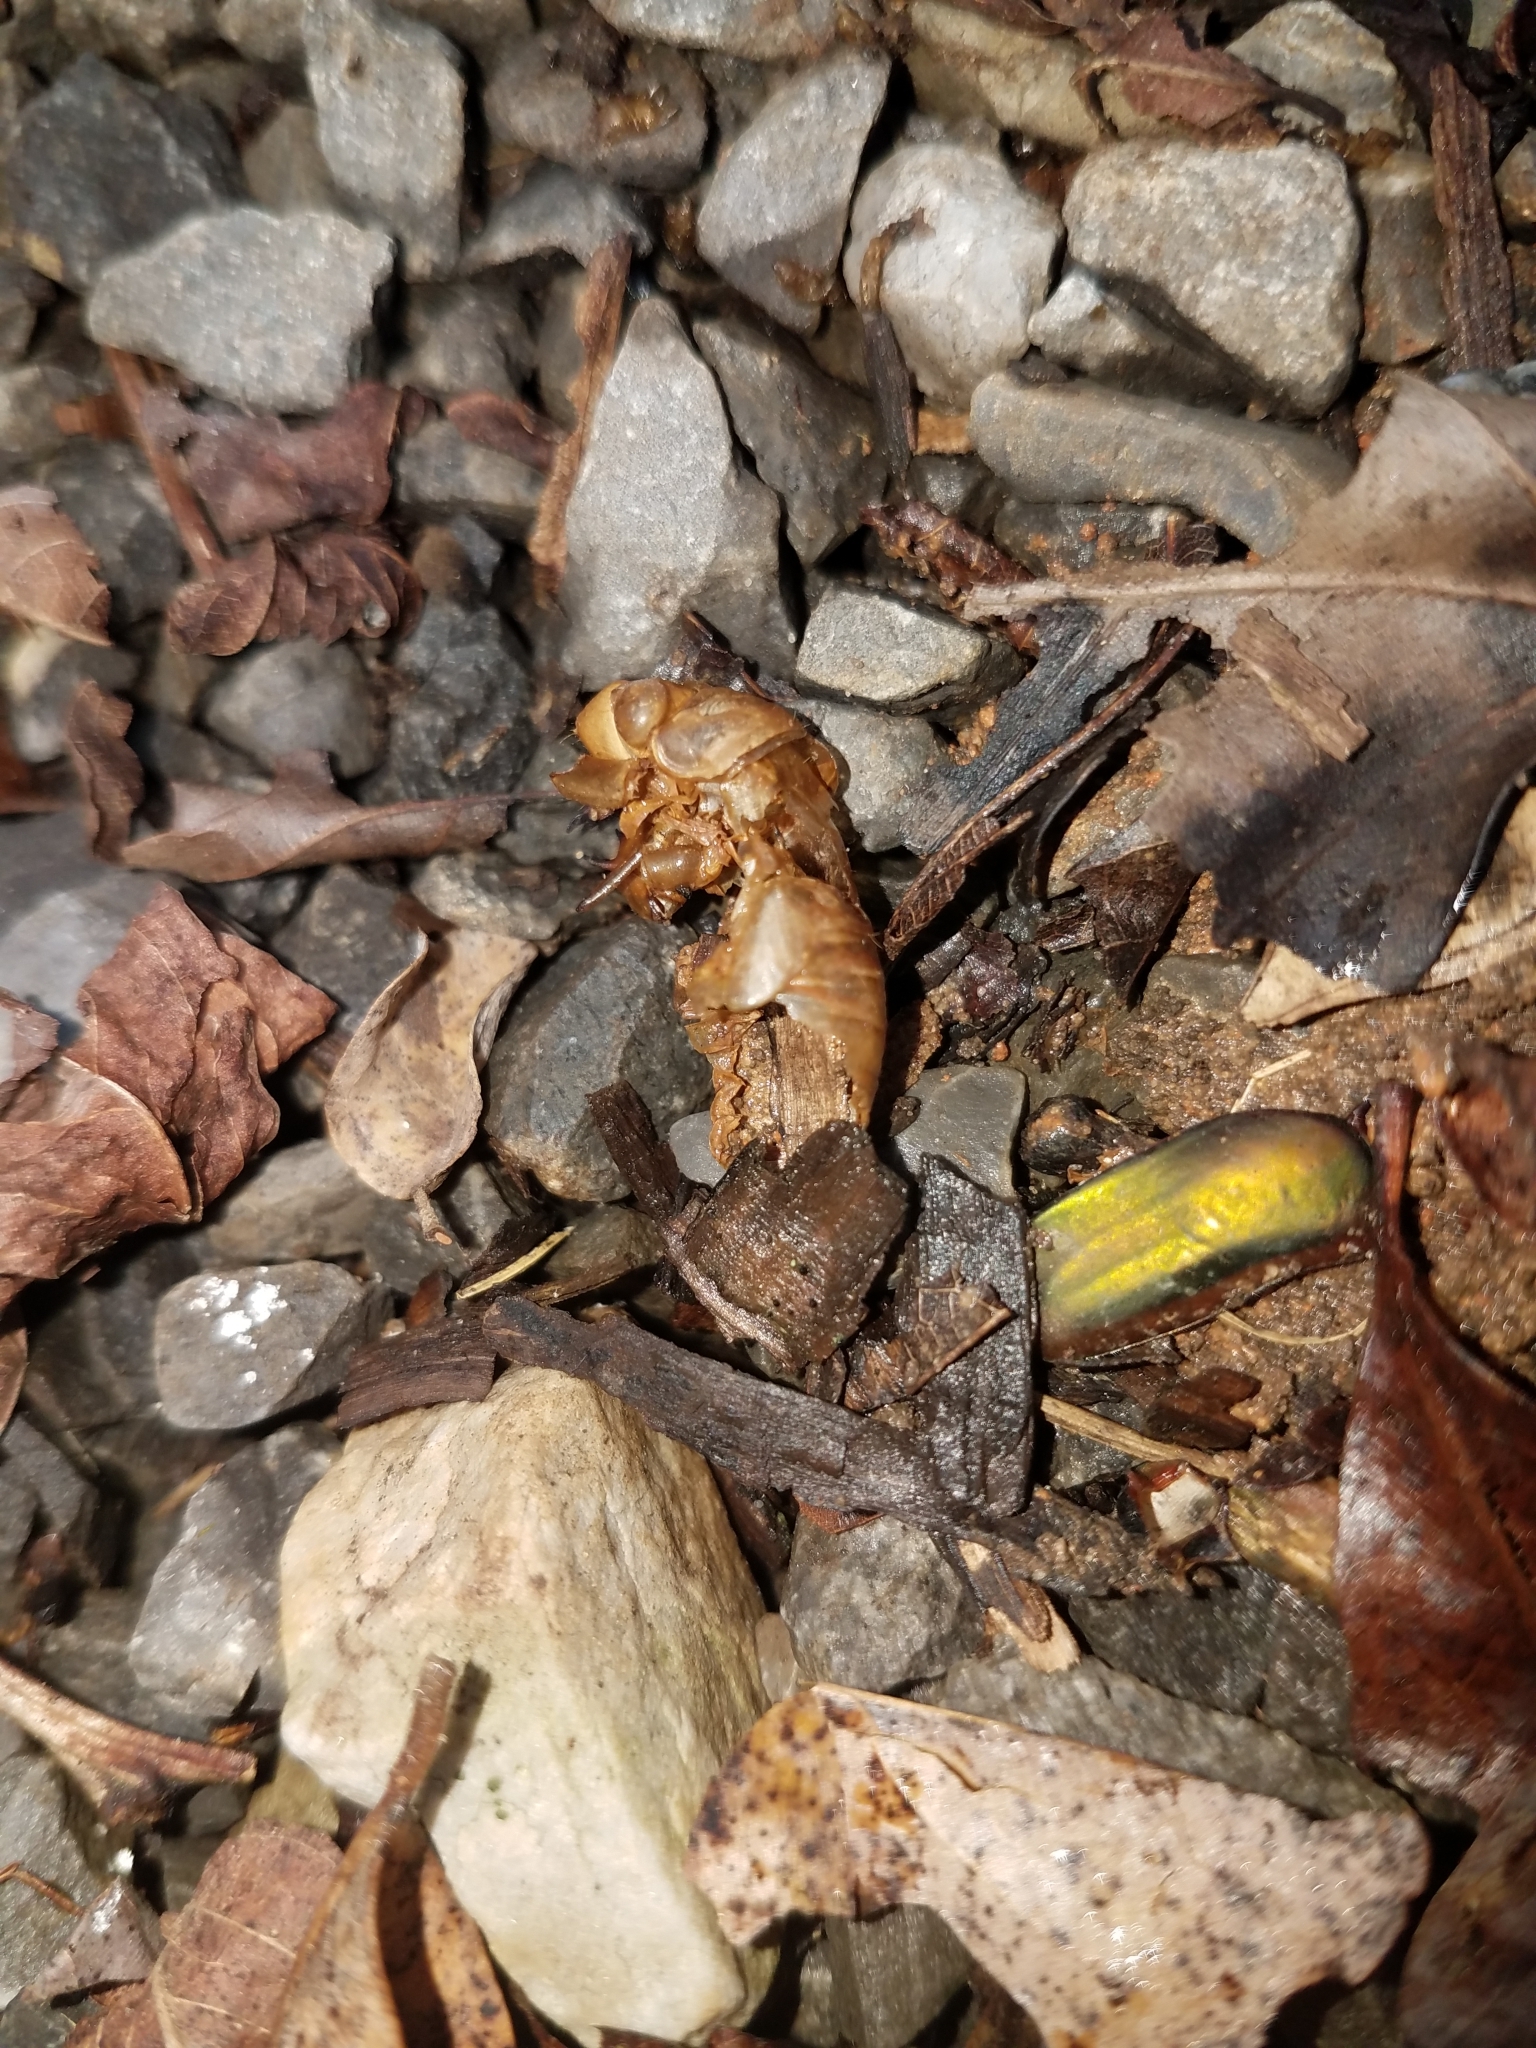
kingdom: Animalia
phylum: Arthropoda
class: Insecta
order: Hemiptera
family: Cicadidae
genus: Magicicada
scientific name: Magicicada
